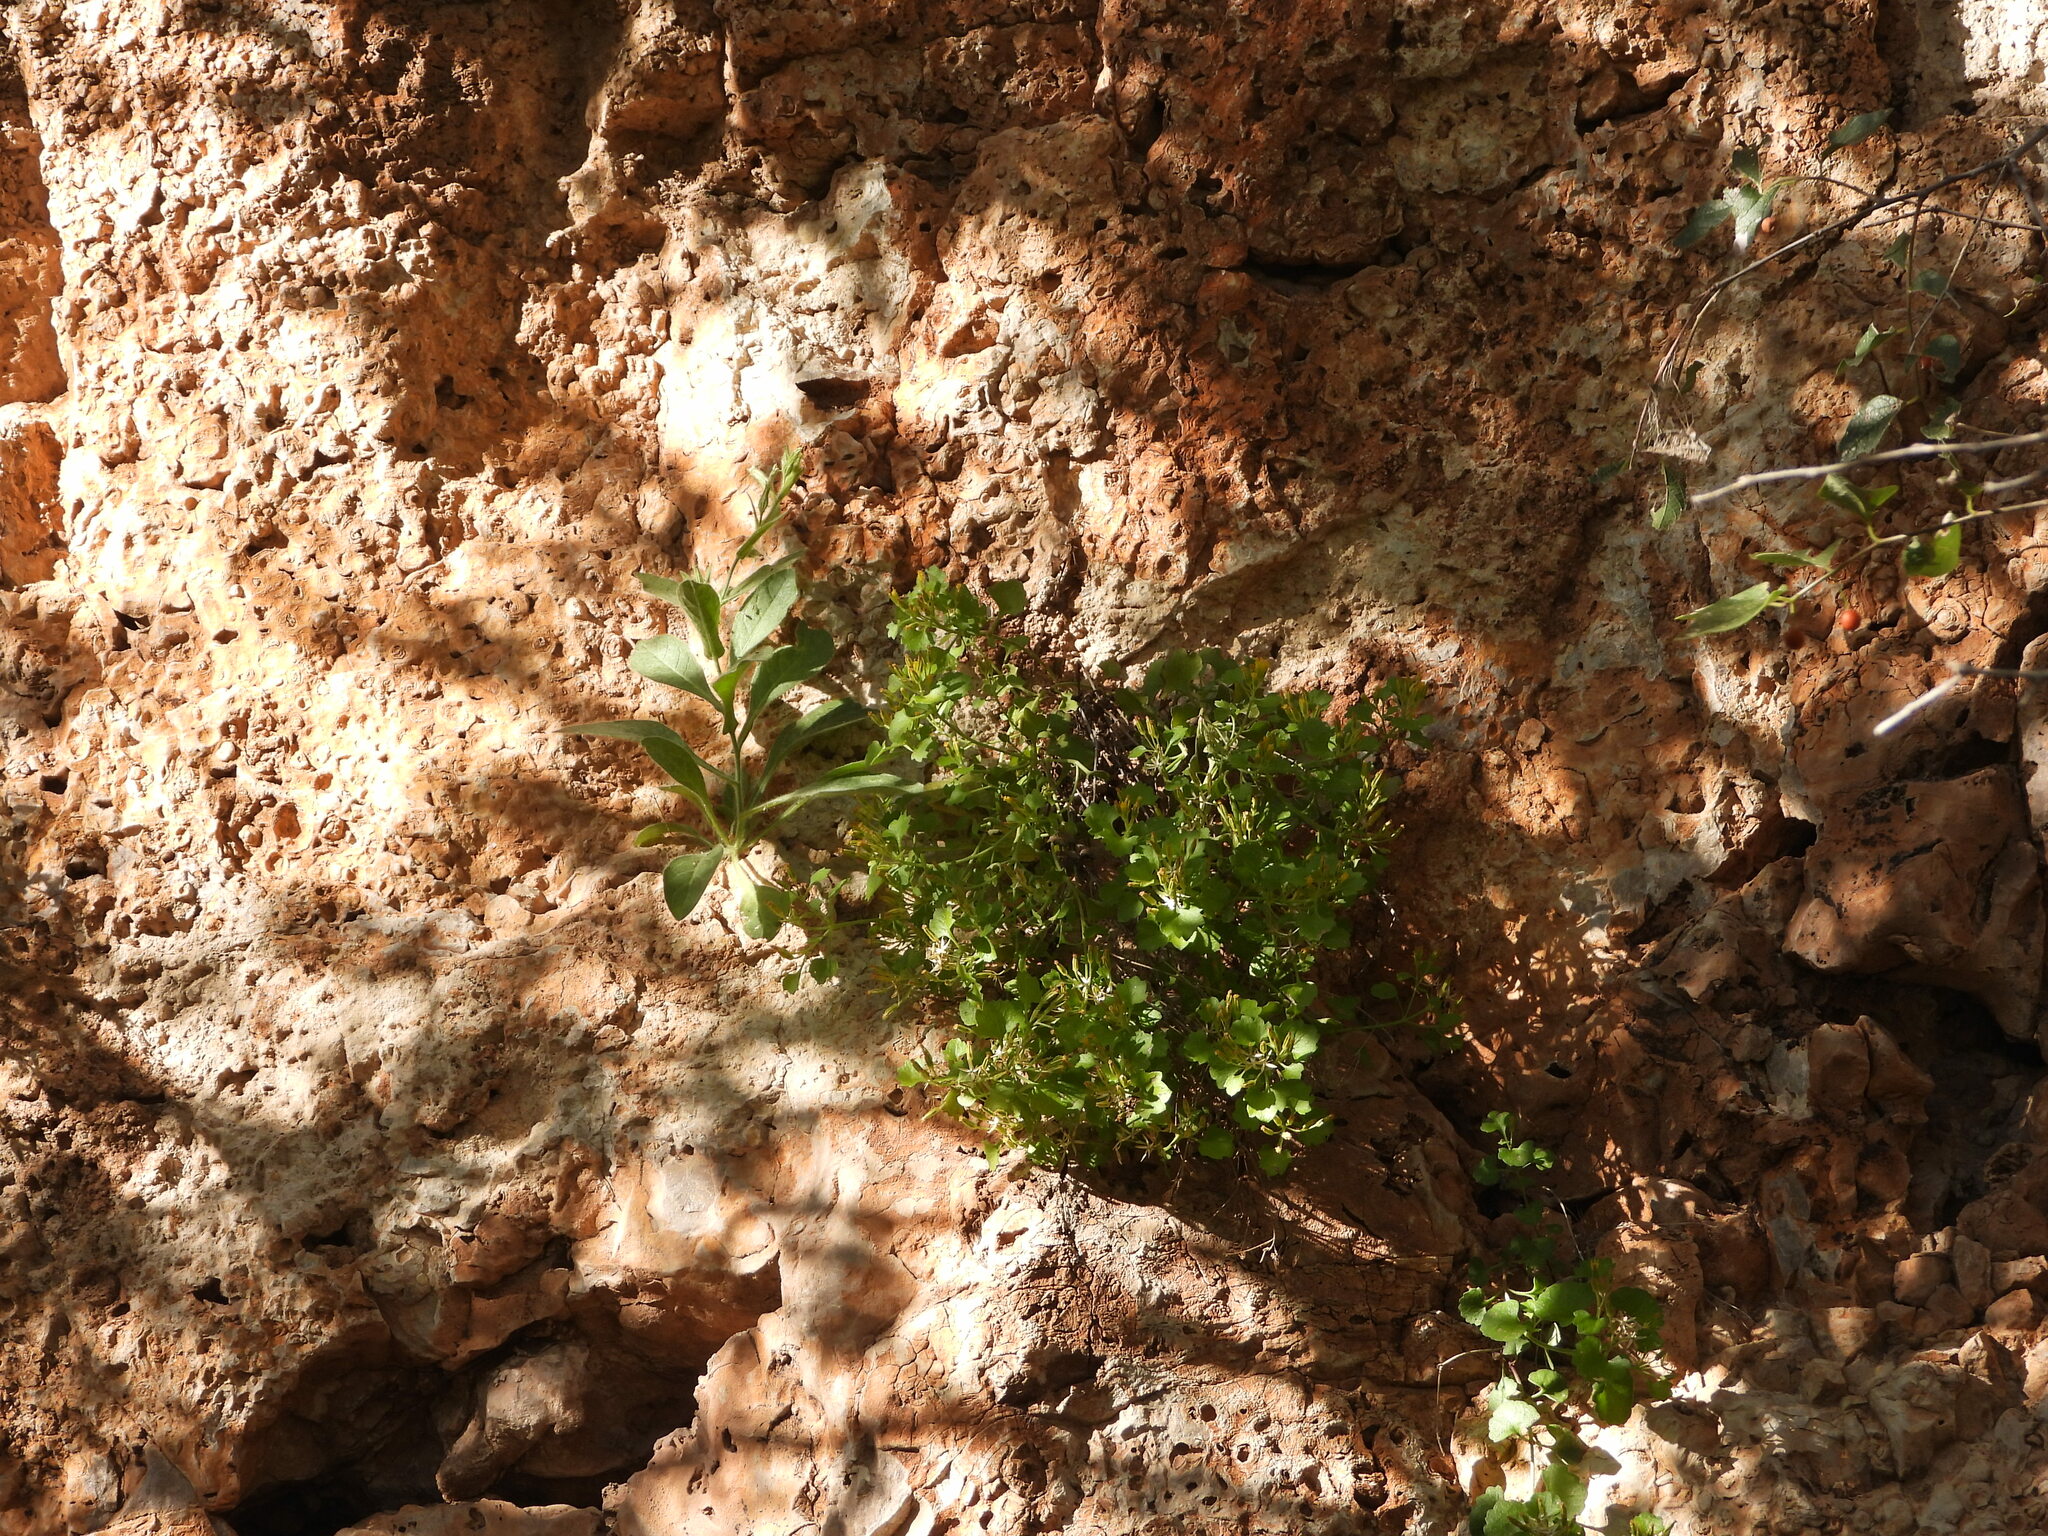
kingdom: Plantae
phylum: Tracheophyta
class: Magnoliopsida
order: Asterales
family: Asteraceae
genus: Laphamia
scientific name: Laphamia quinqueflora
